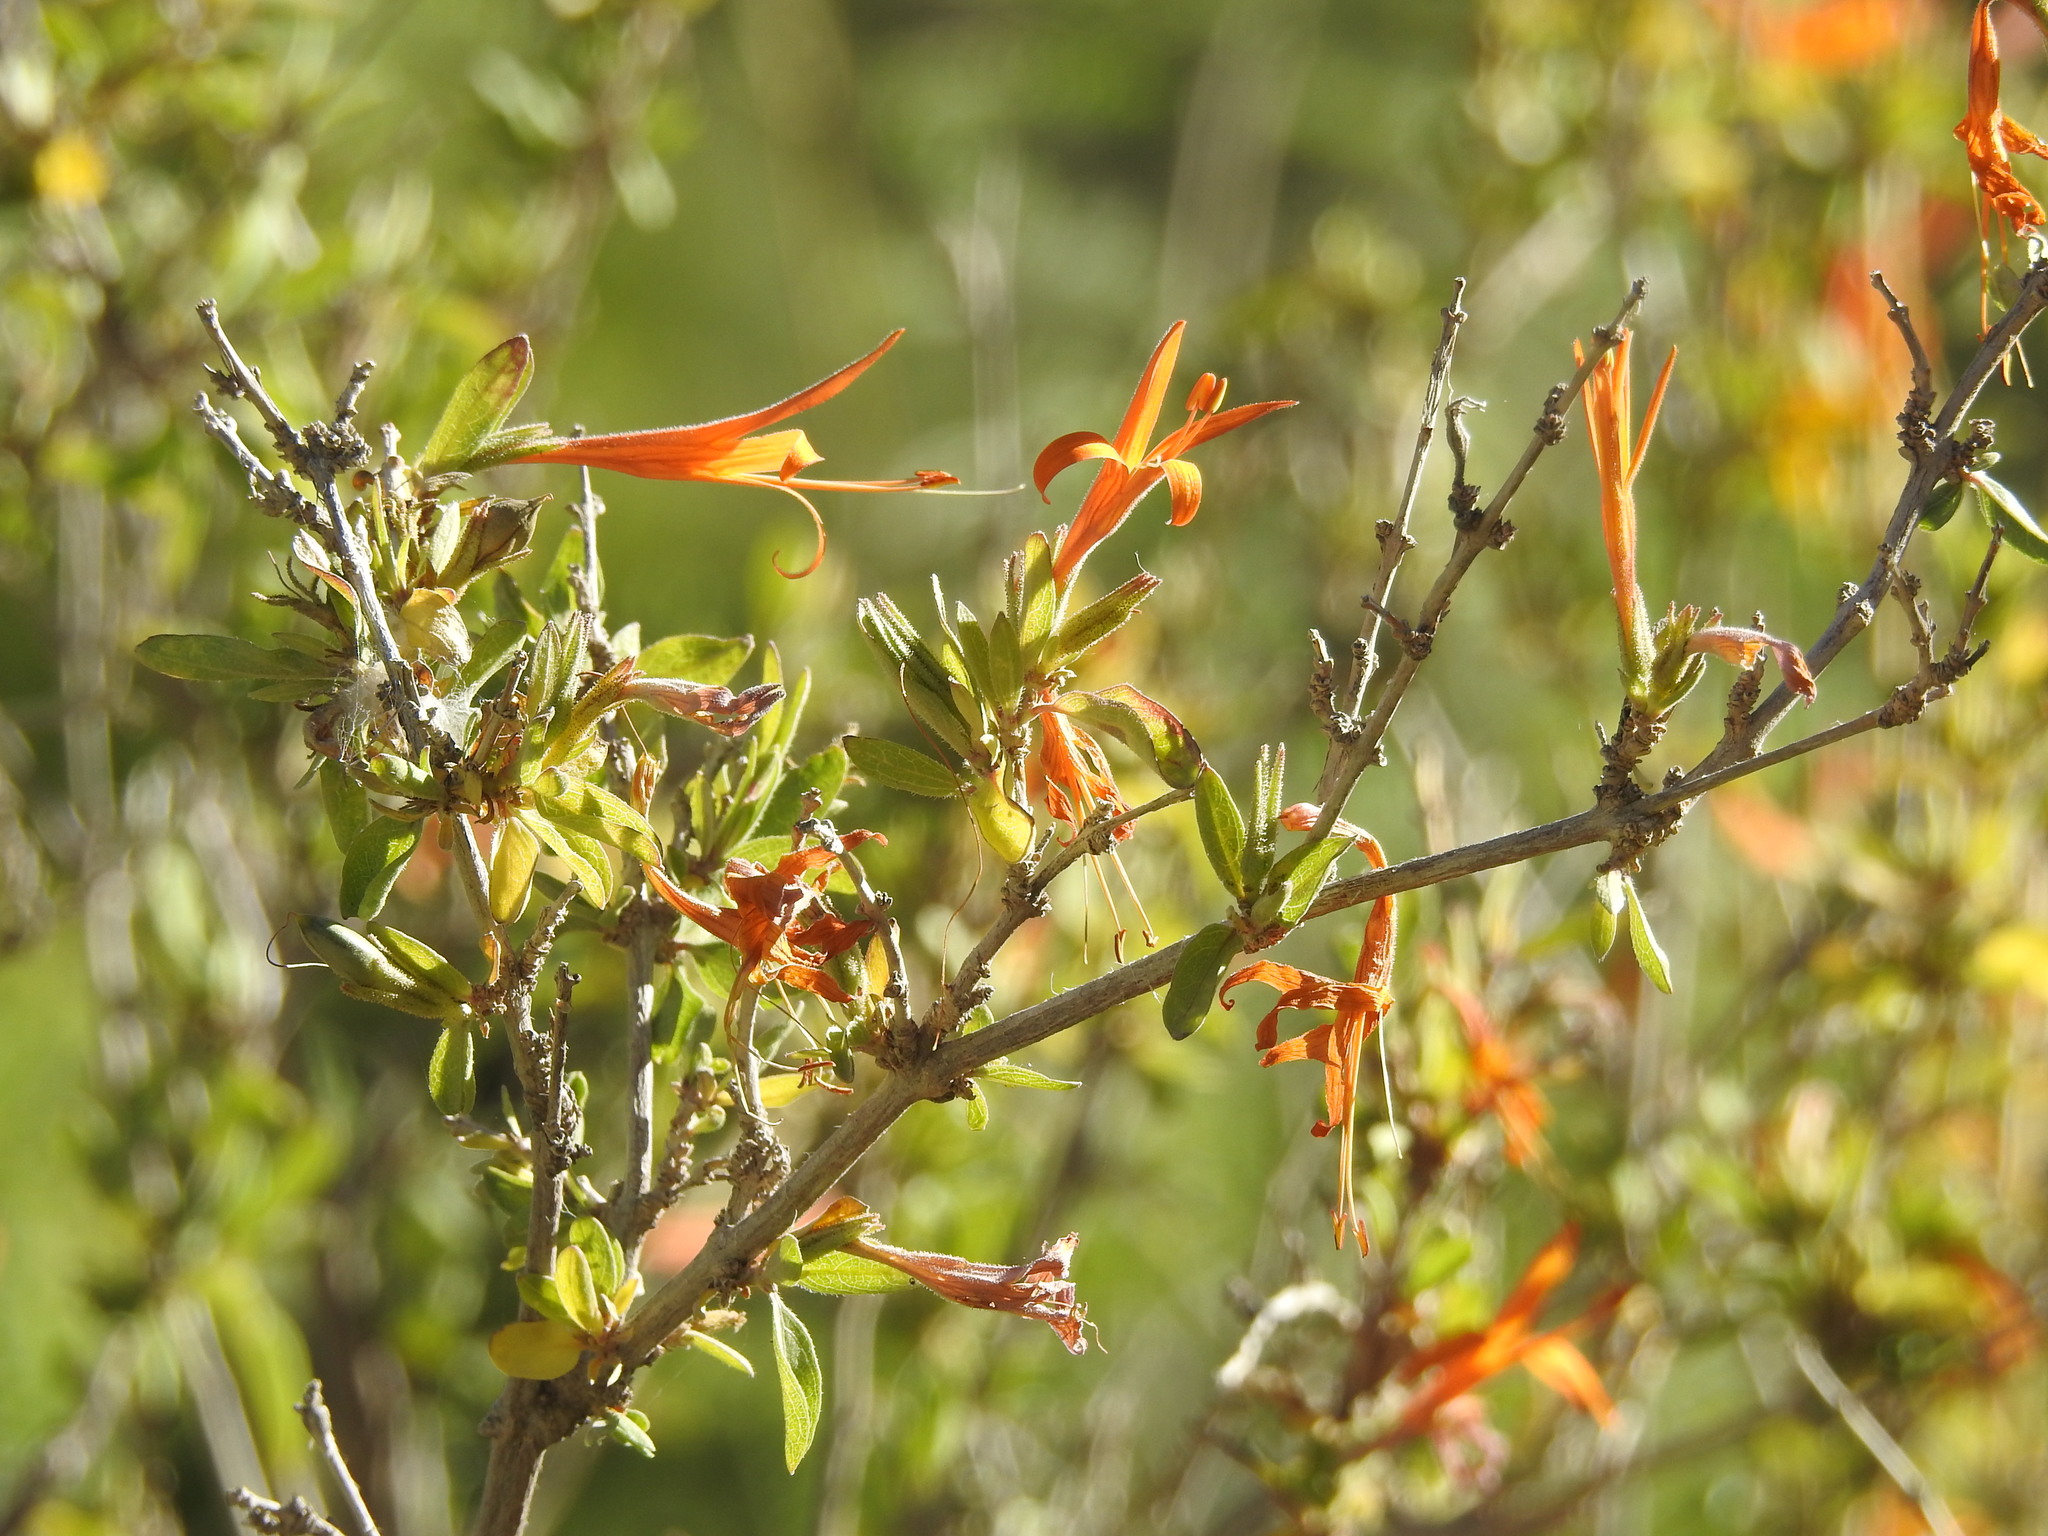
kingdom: Plantae
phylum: Tracheophyta
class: Magnoliopsida
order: Lamiales
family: Acanthaceae
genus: Anisacanthus
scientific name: Anisacanthus thurberi
